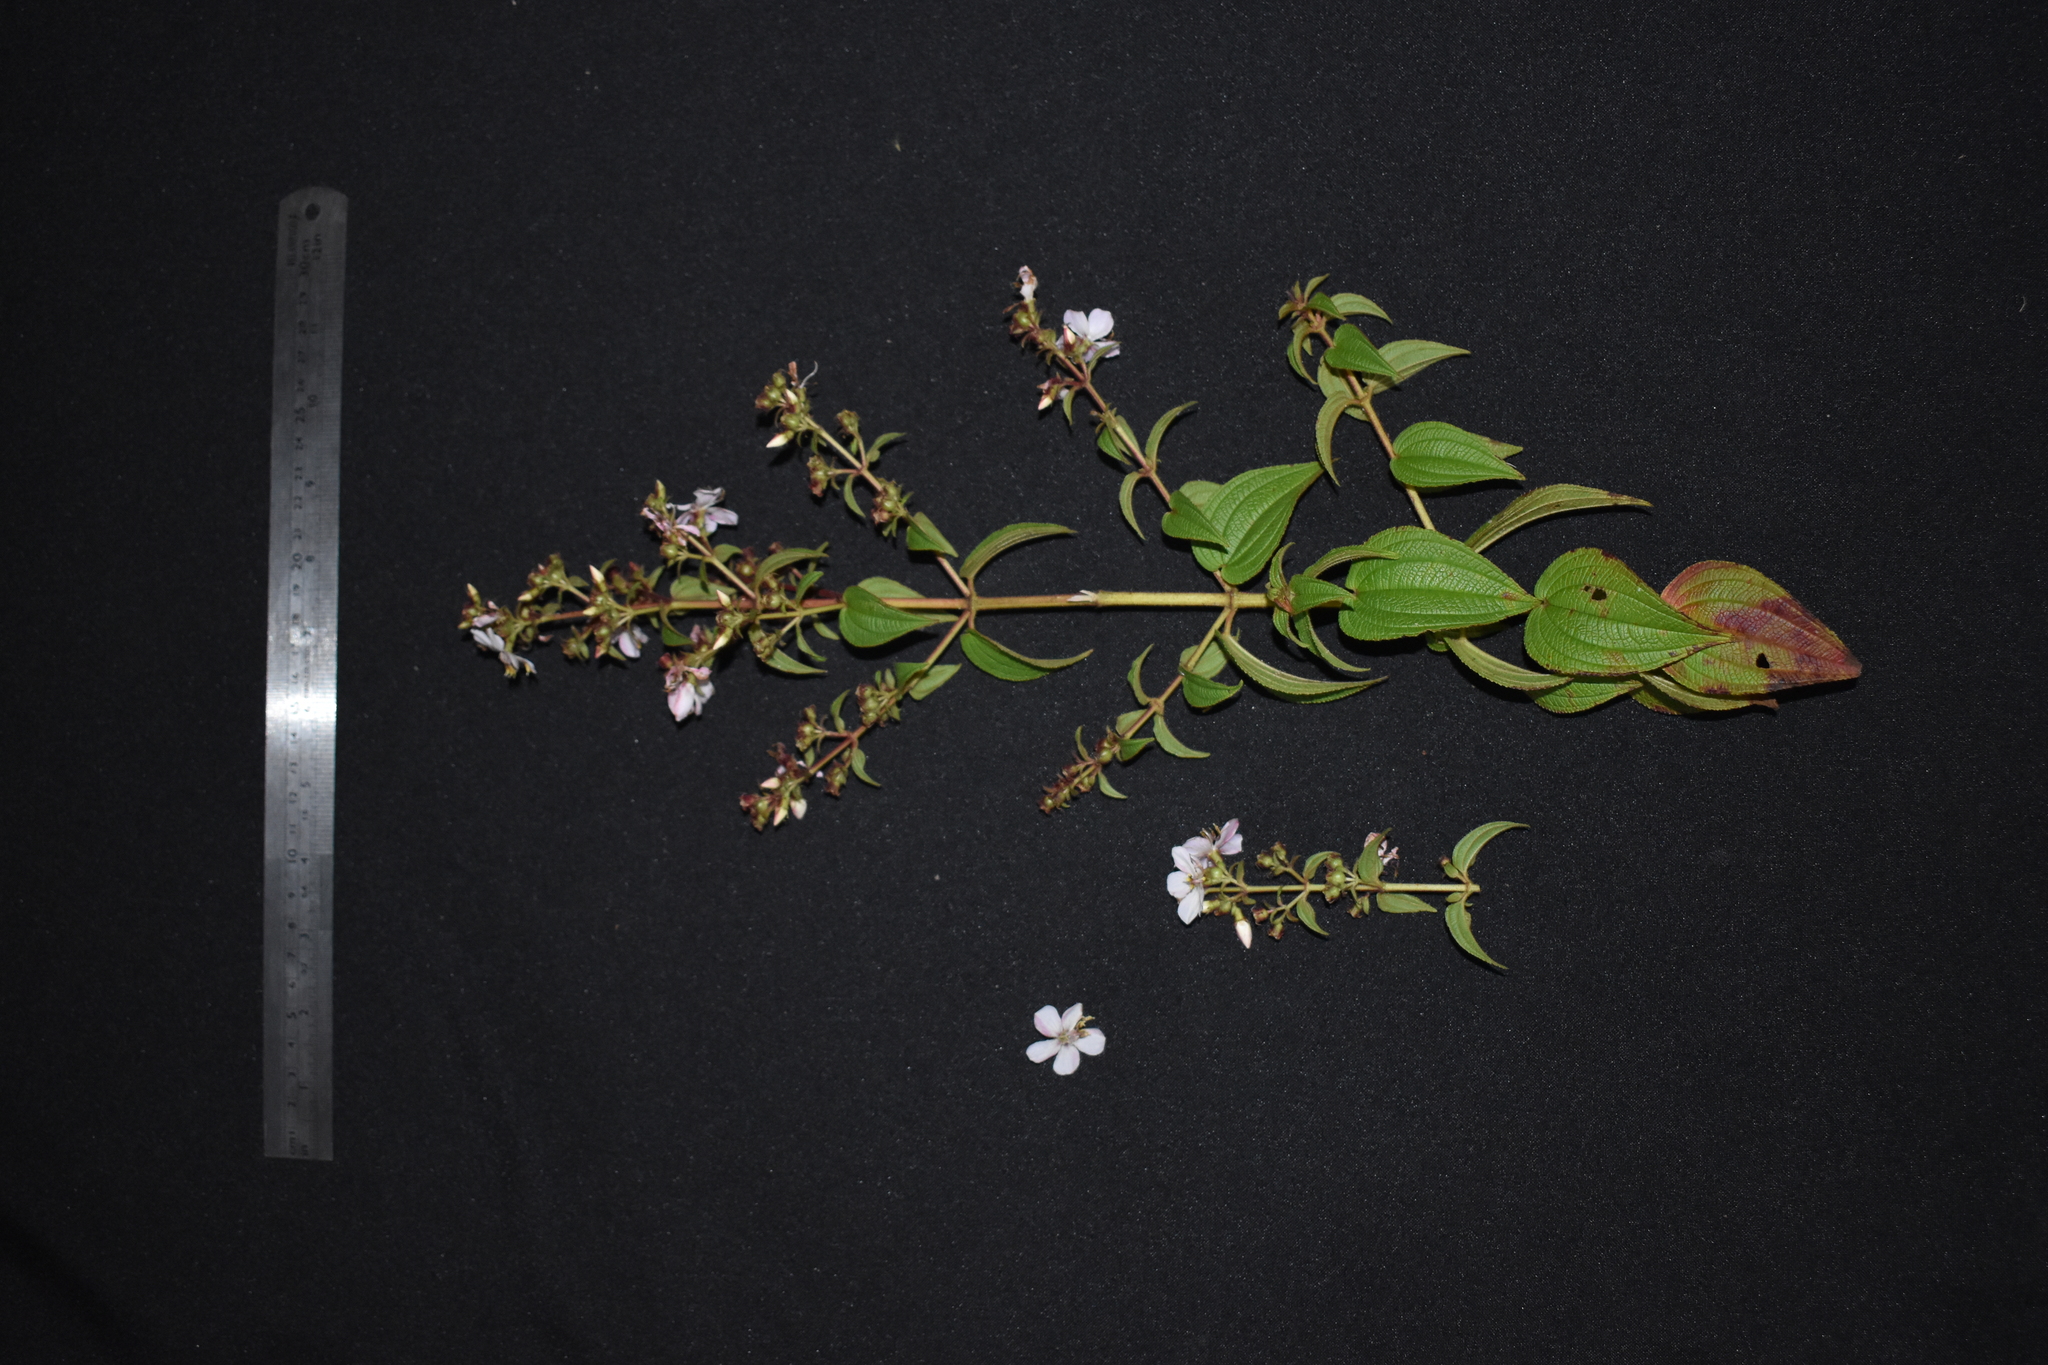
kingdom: Plantae
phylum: Tracheophyta
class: Magnoliopsida
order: Myrtales
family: Melastomataceae
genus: Rhynchanthera
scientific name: Rhynchanthera cordata
